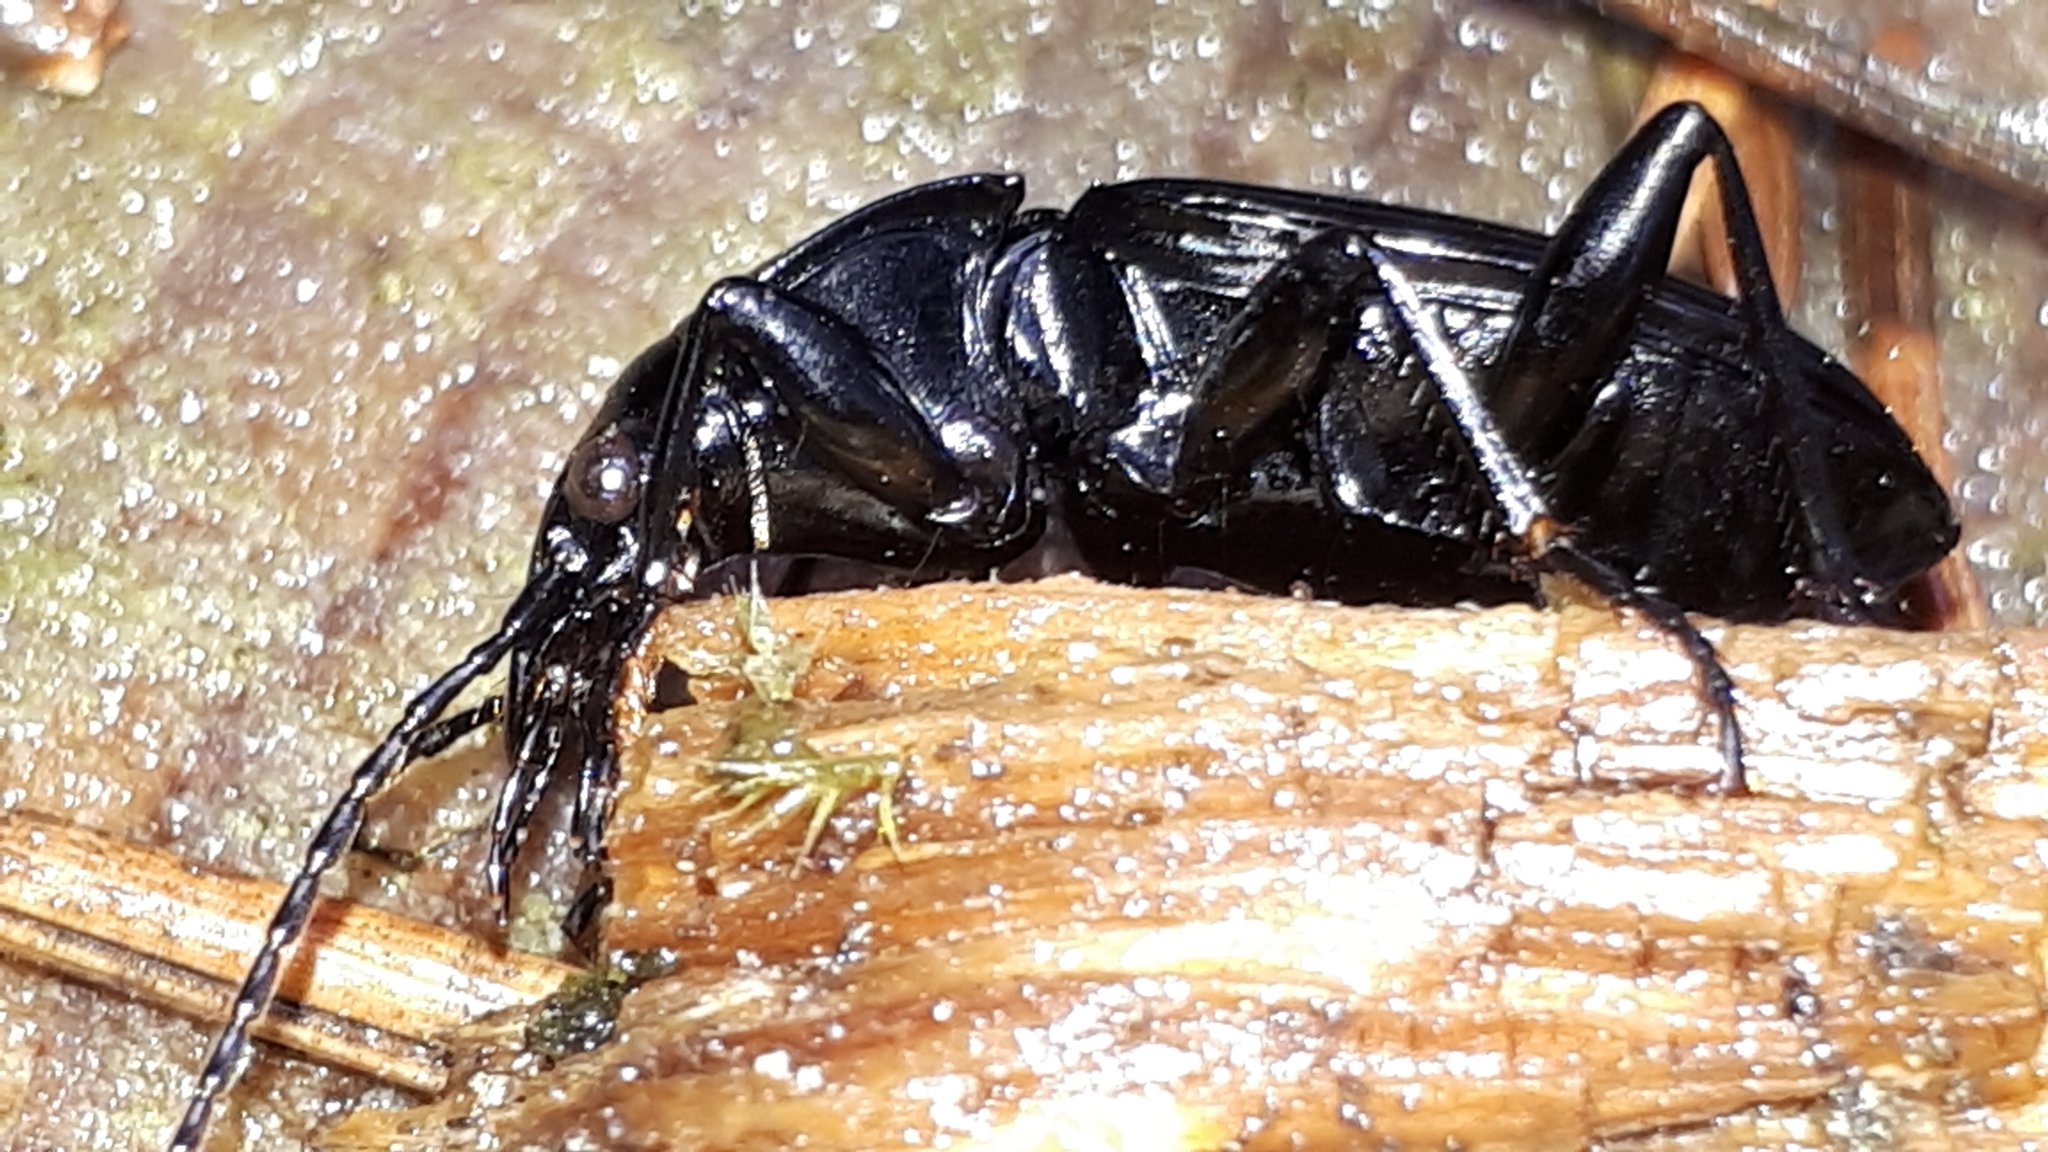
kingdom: Animalia
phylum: Arthropoda
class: Insecta
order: Coleoptera
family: Carabidae
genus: Pterostichus
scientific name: Pterostichus niger
